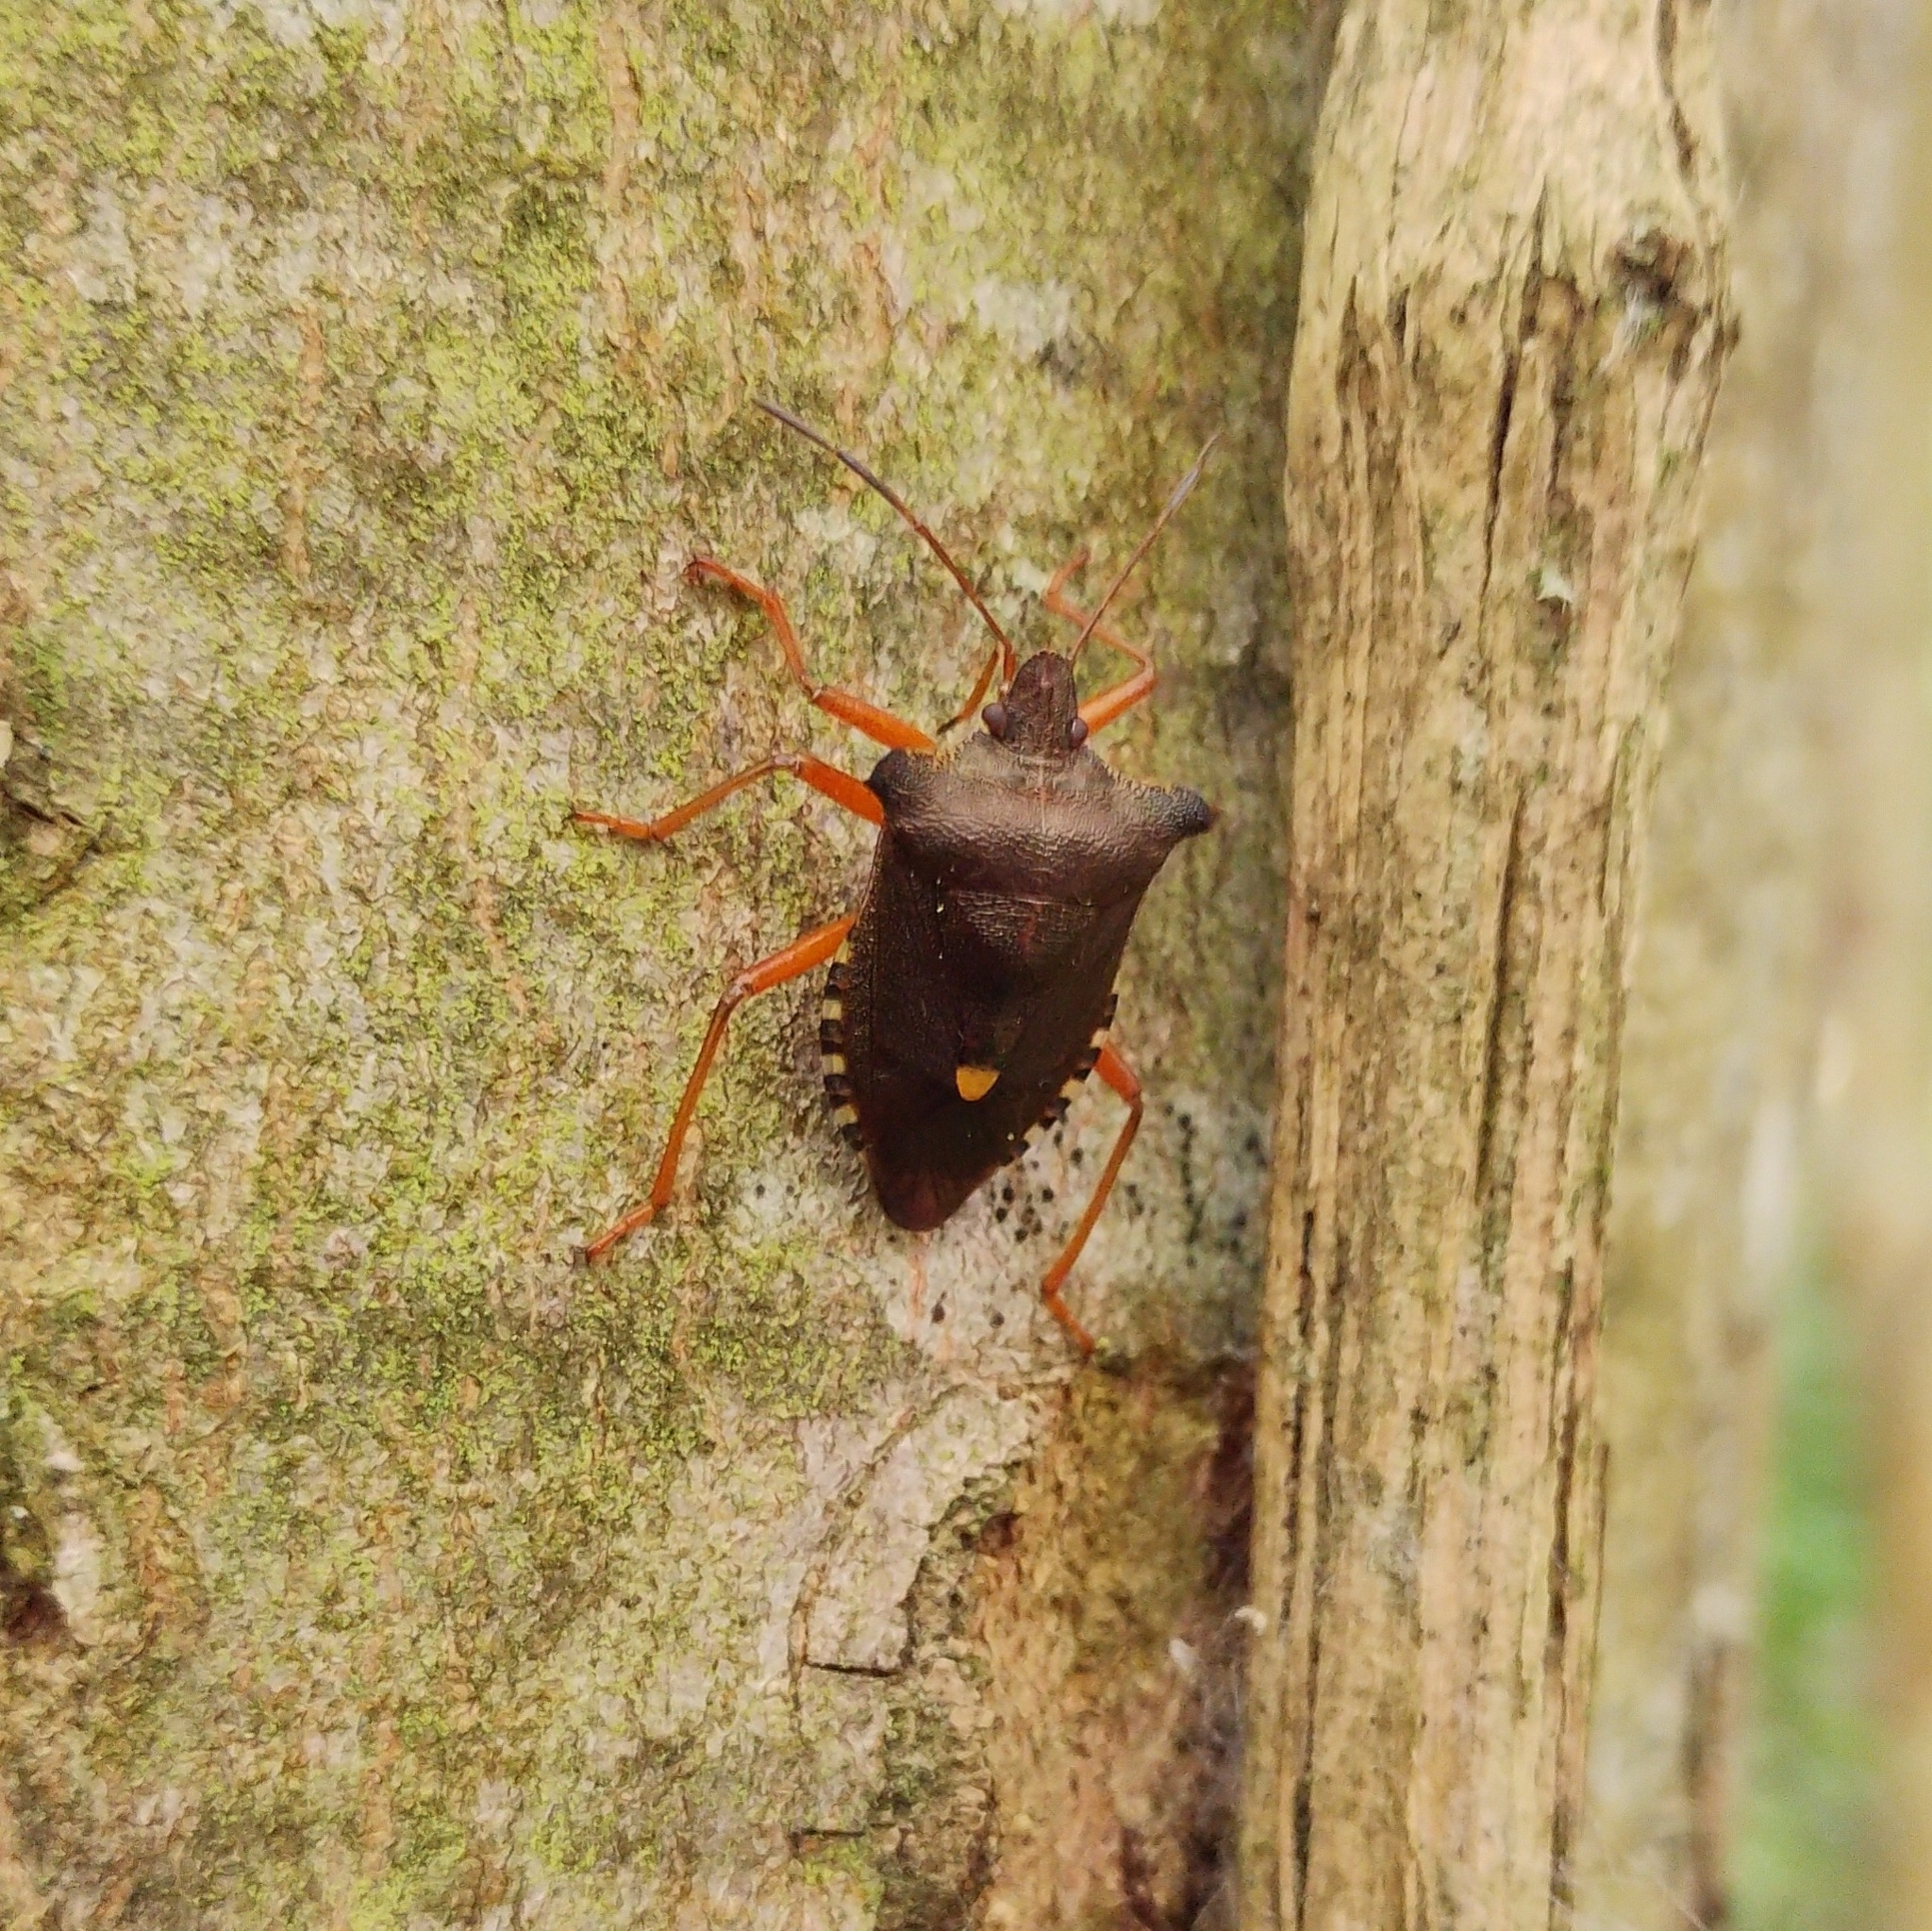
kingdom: Animalia
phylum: Arthropoda
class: Insecta
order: Hemiptera
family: Pentatomidae
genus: Pentatoma
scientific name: Pentatoma rufipes
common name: Forest bug
